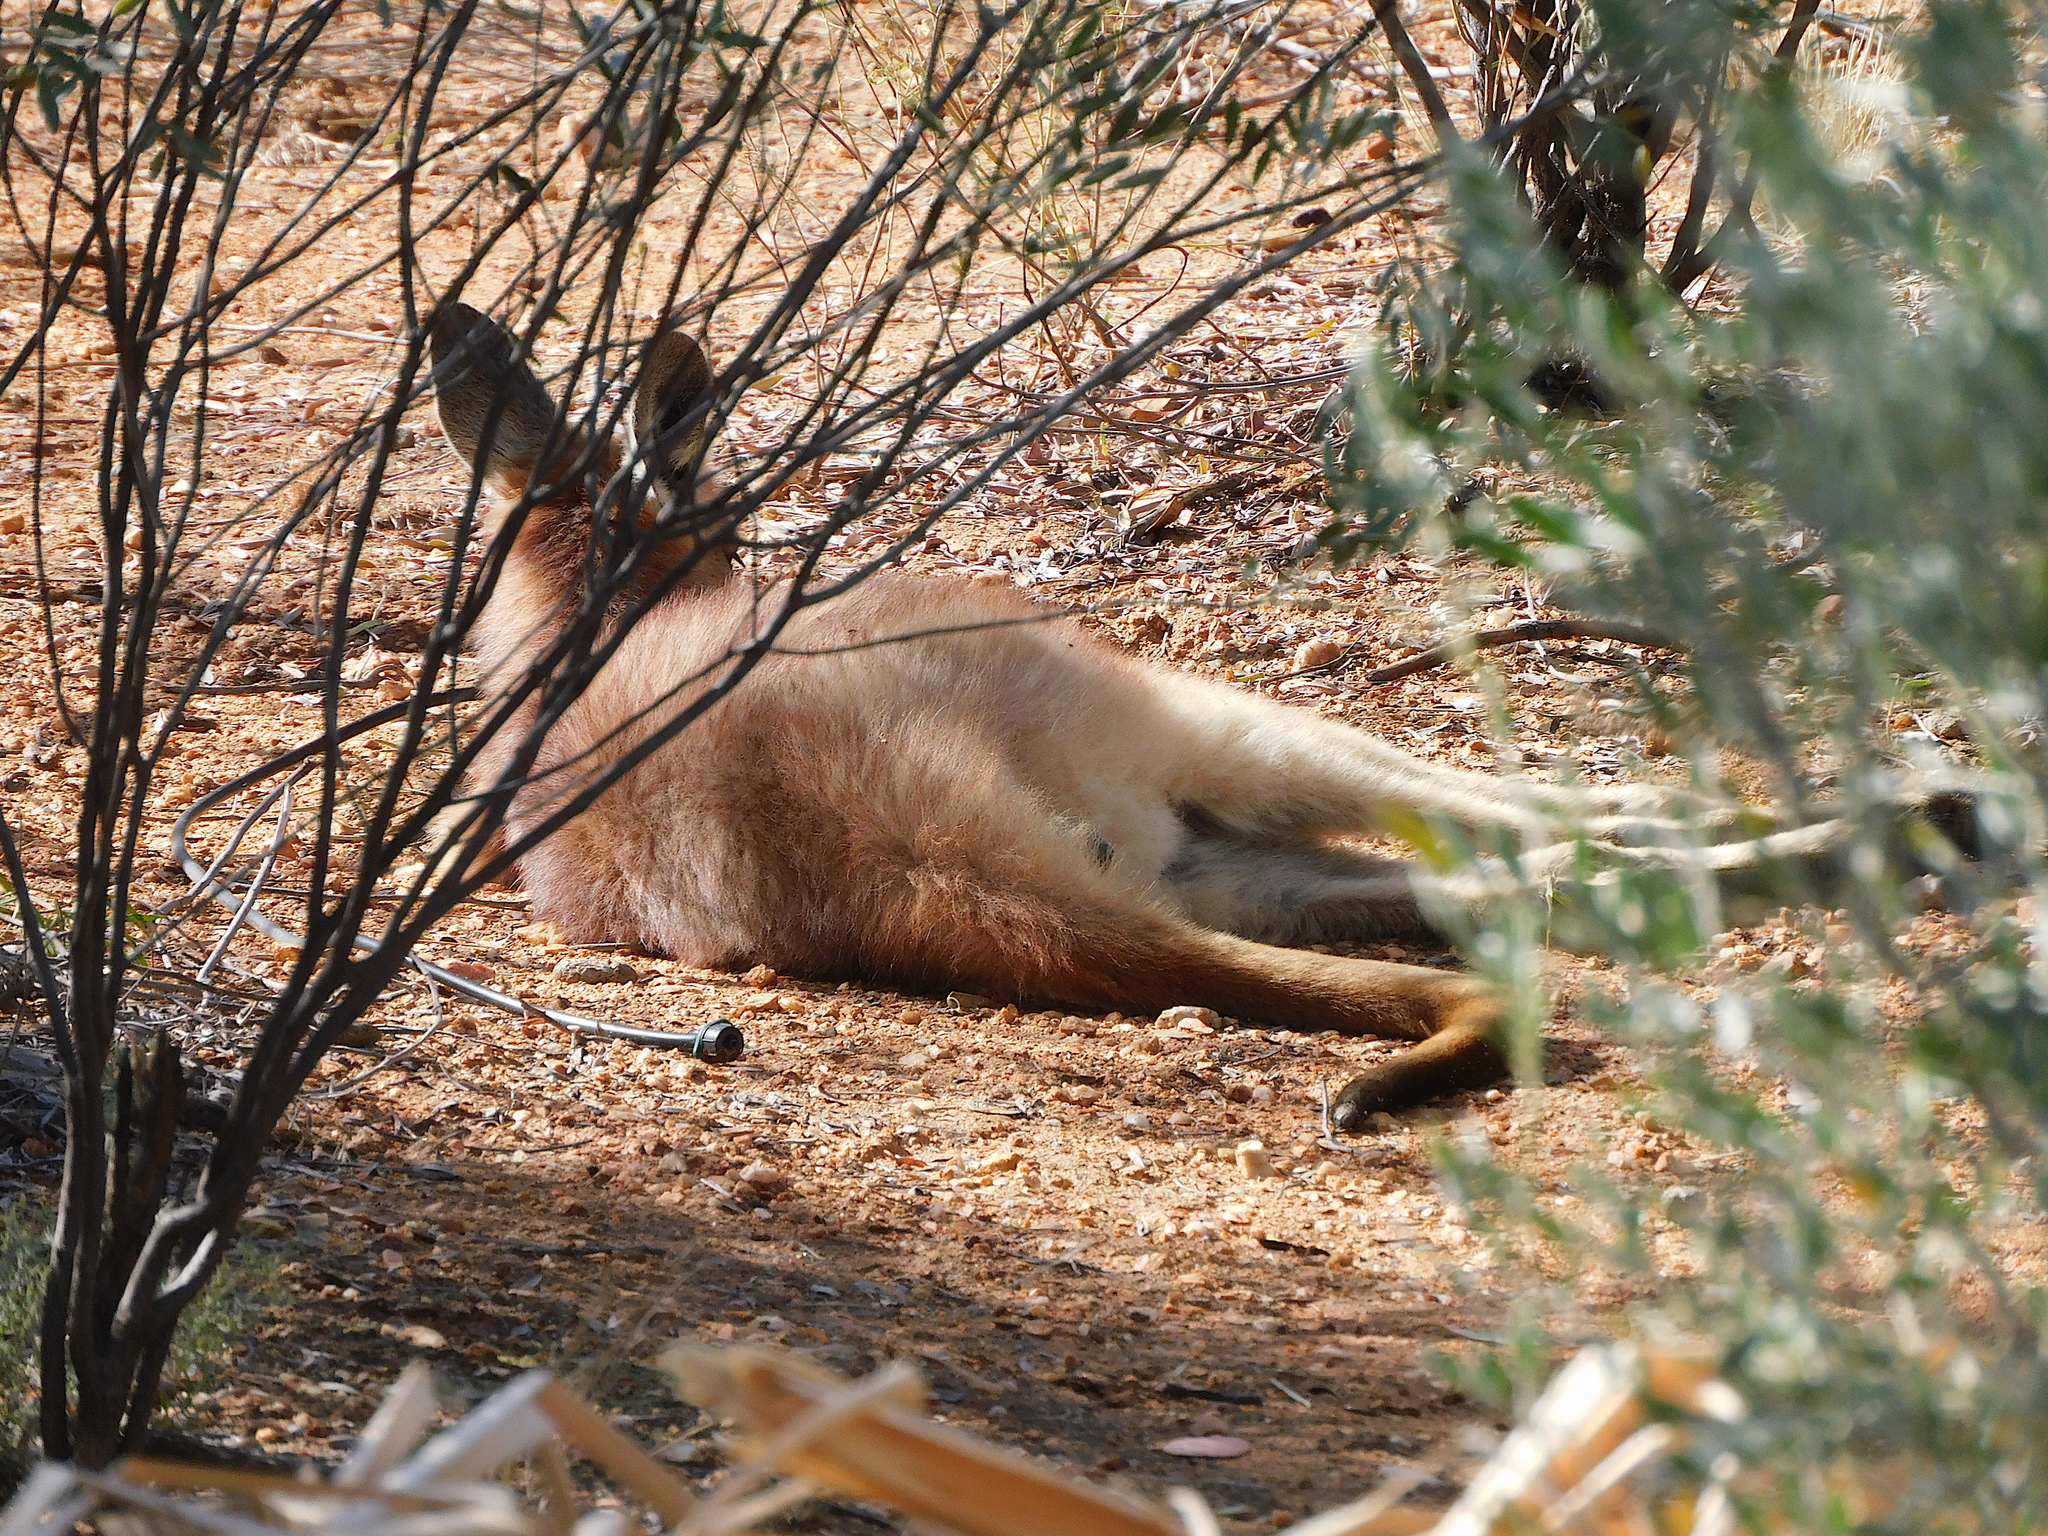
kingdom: Animalia
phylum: Chordata
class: Mammalia
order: Diprotodontia
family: Macropodidae
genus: Macropus
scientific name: Macropus robustus
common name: Eastern wallaroo
